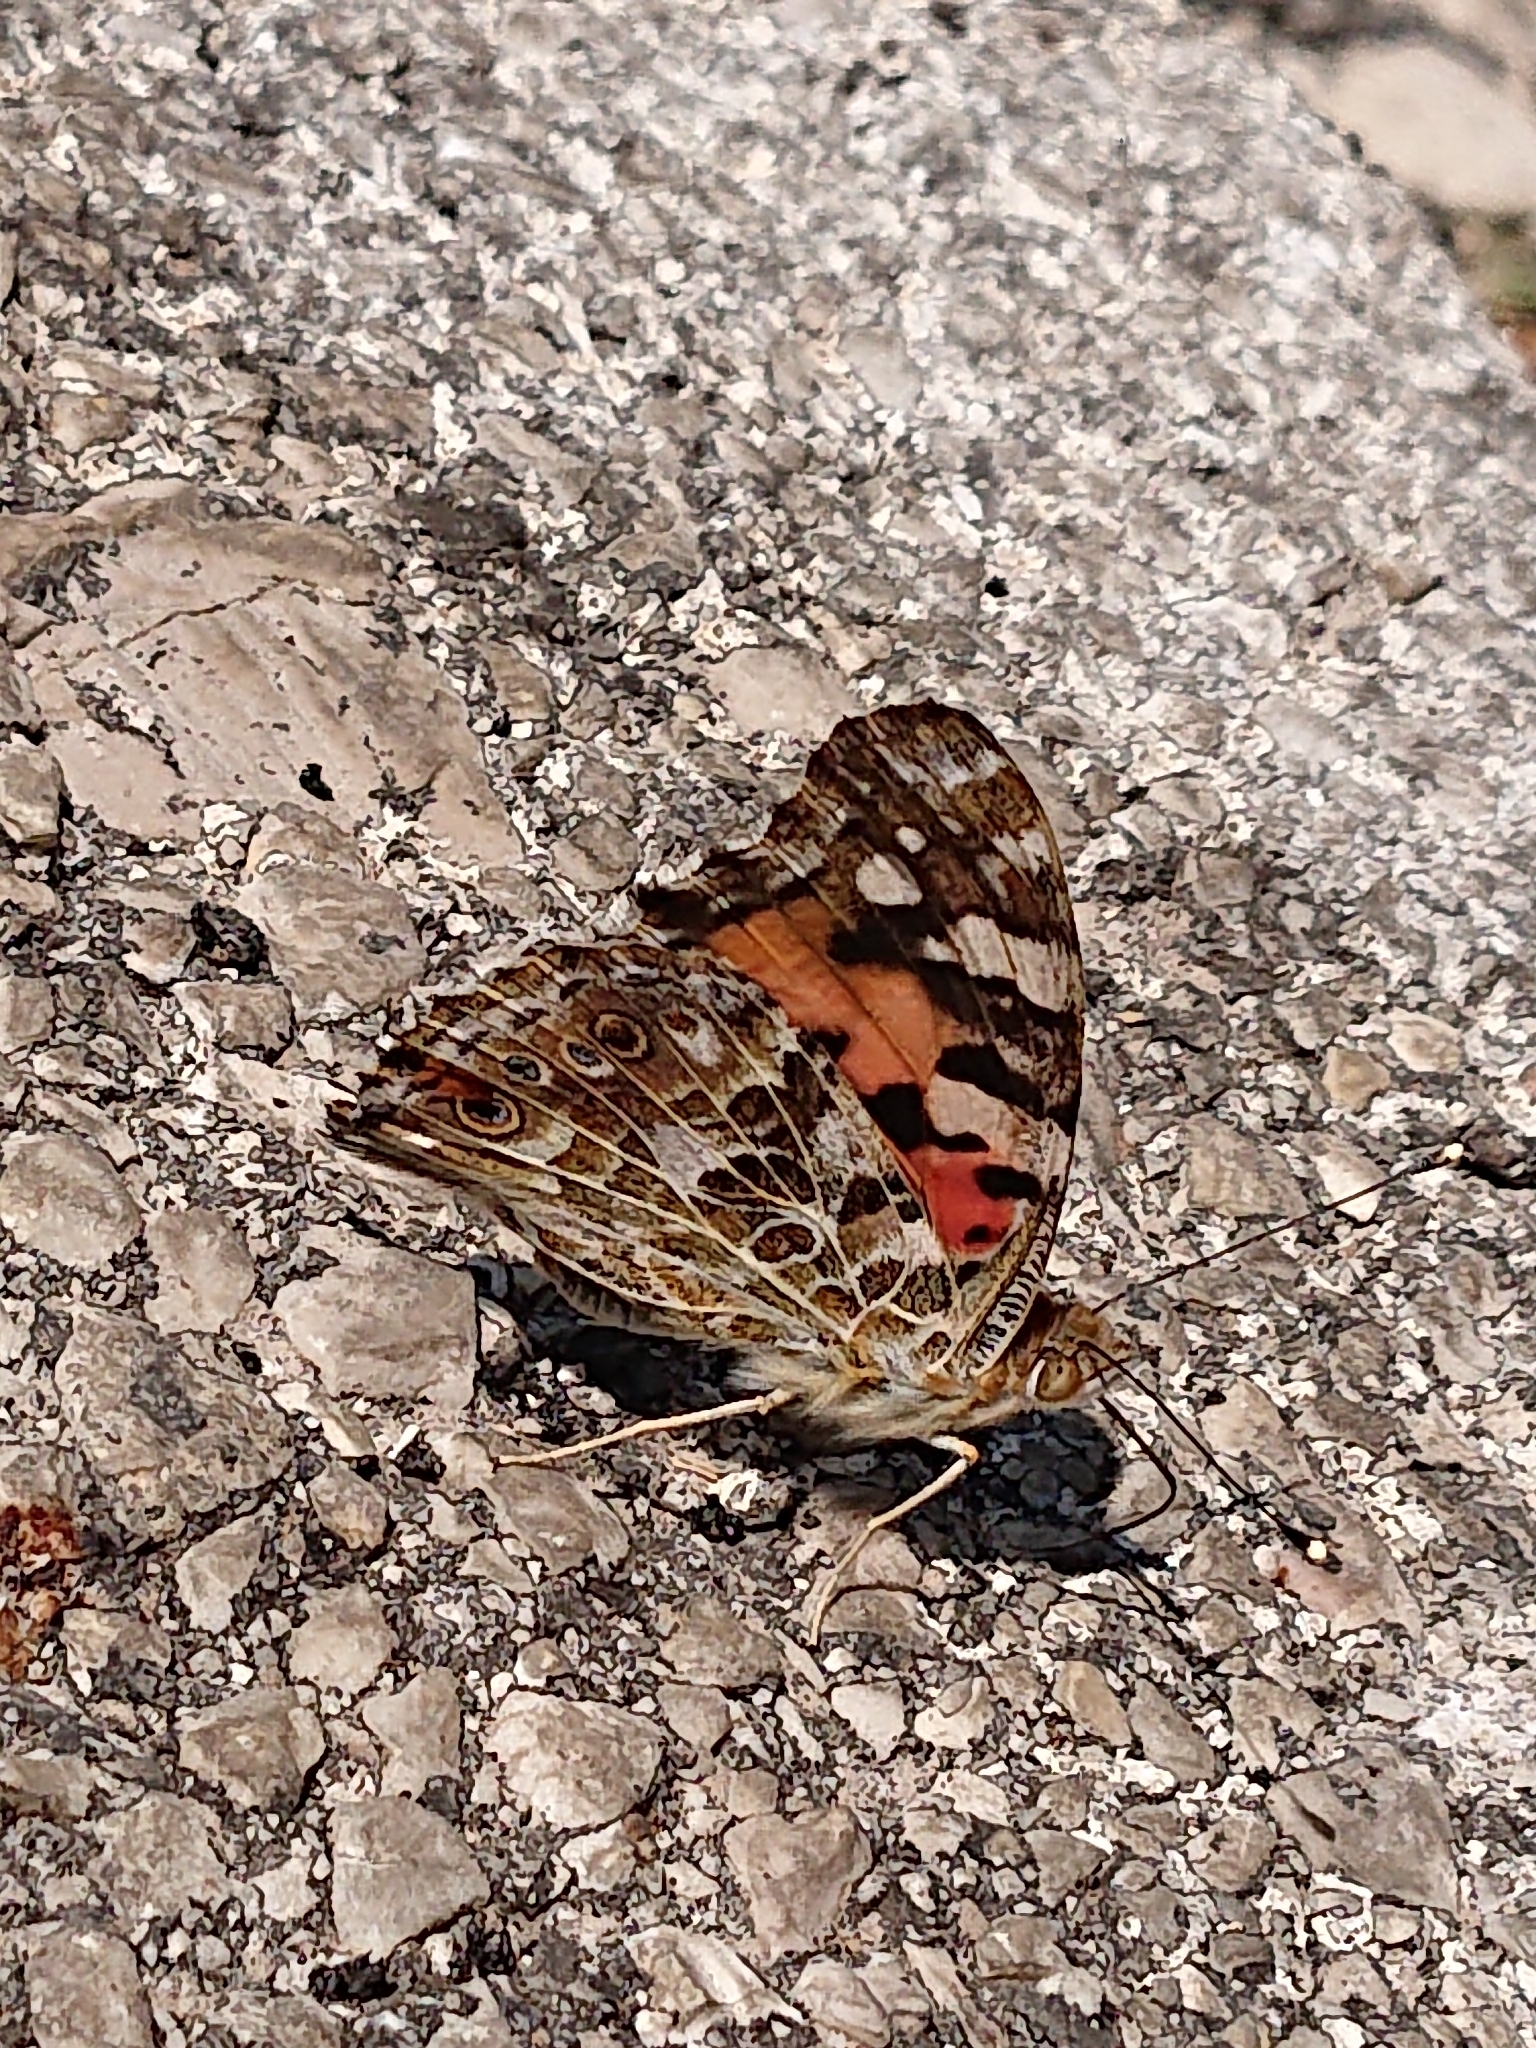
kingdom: Animalia
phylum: Arthropoda
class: Insecta
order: Lepidoptera
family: Nymphalidae
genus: Vanessa
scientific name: Vanessa cardui
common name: Painted lady
